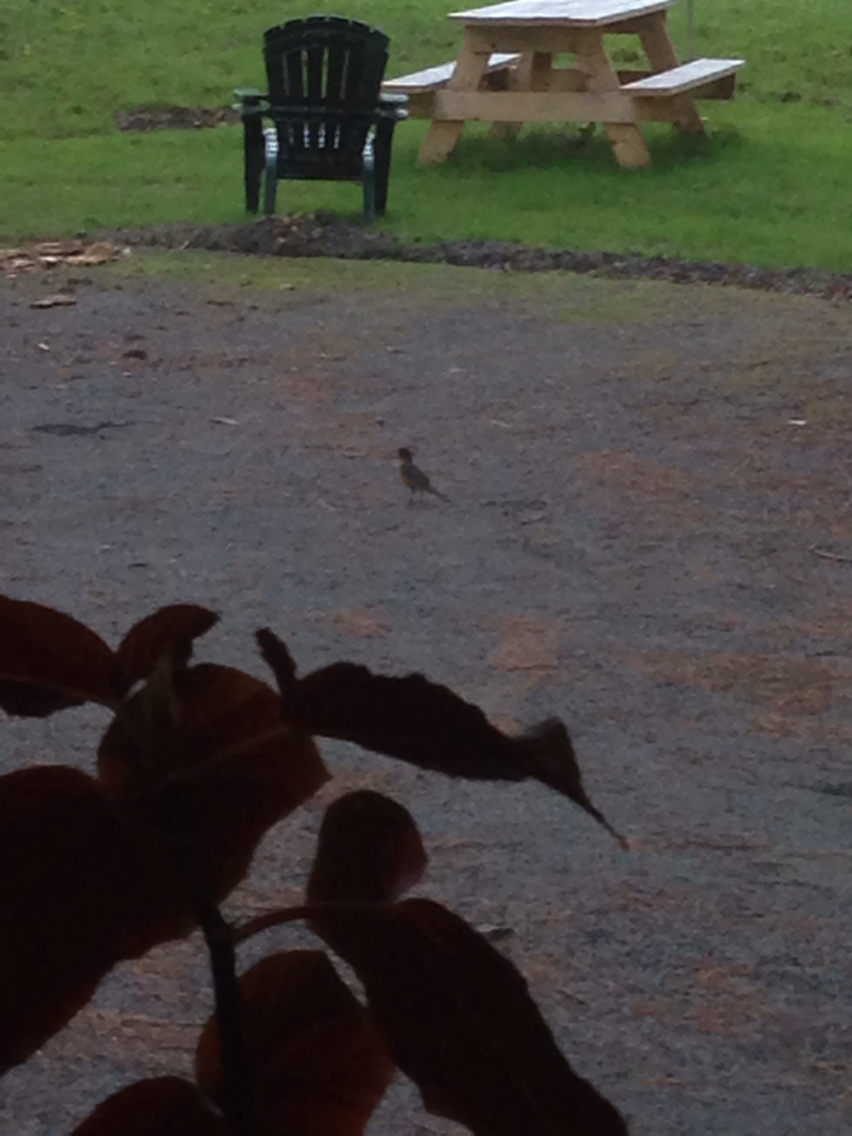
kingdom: Animalia
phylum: Chordata
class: Aves
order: Passeriformes
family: Turdidae
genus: Turdus
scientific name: Turdus migratorius
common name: American robin
